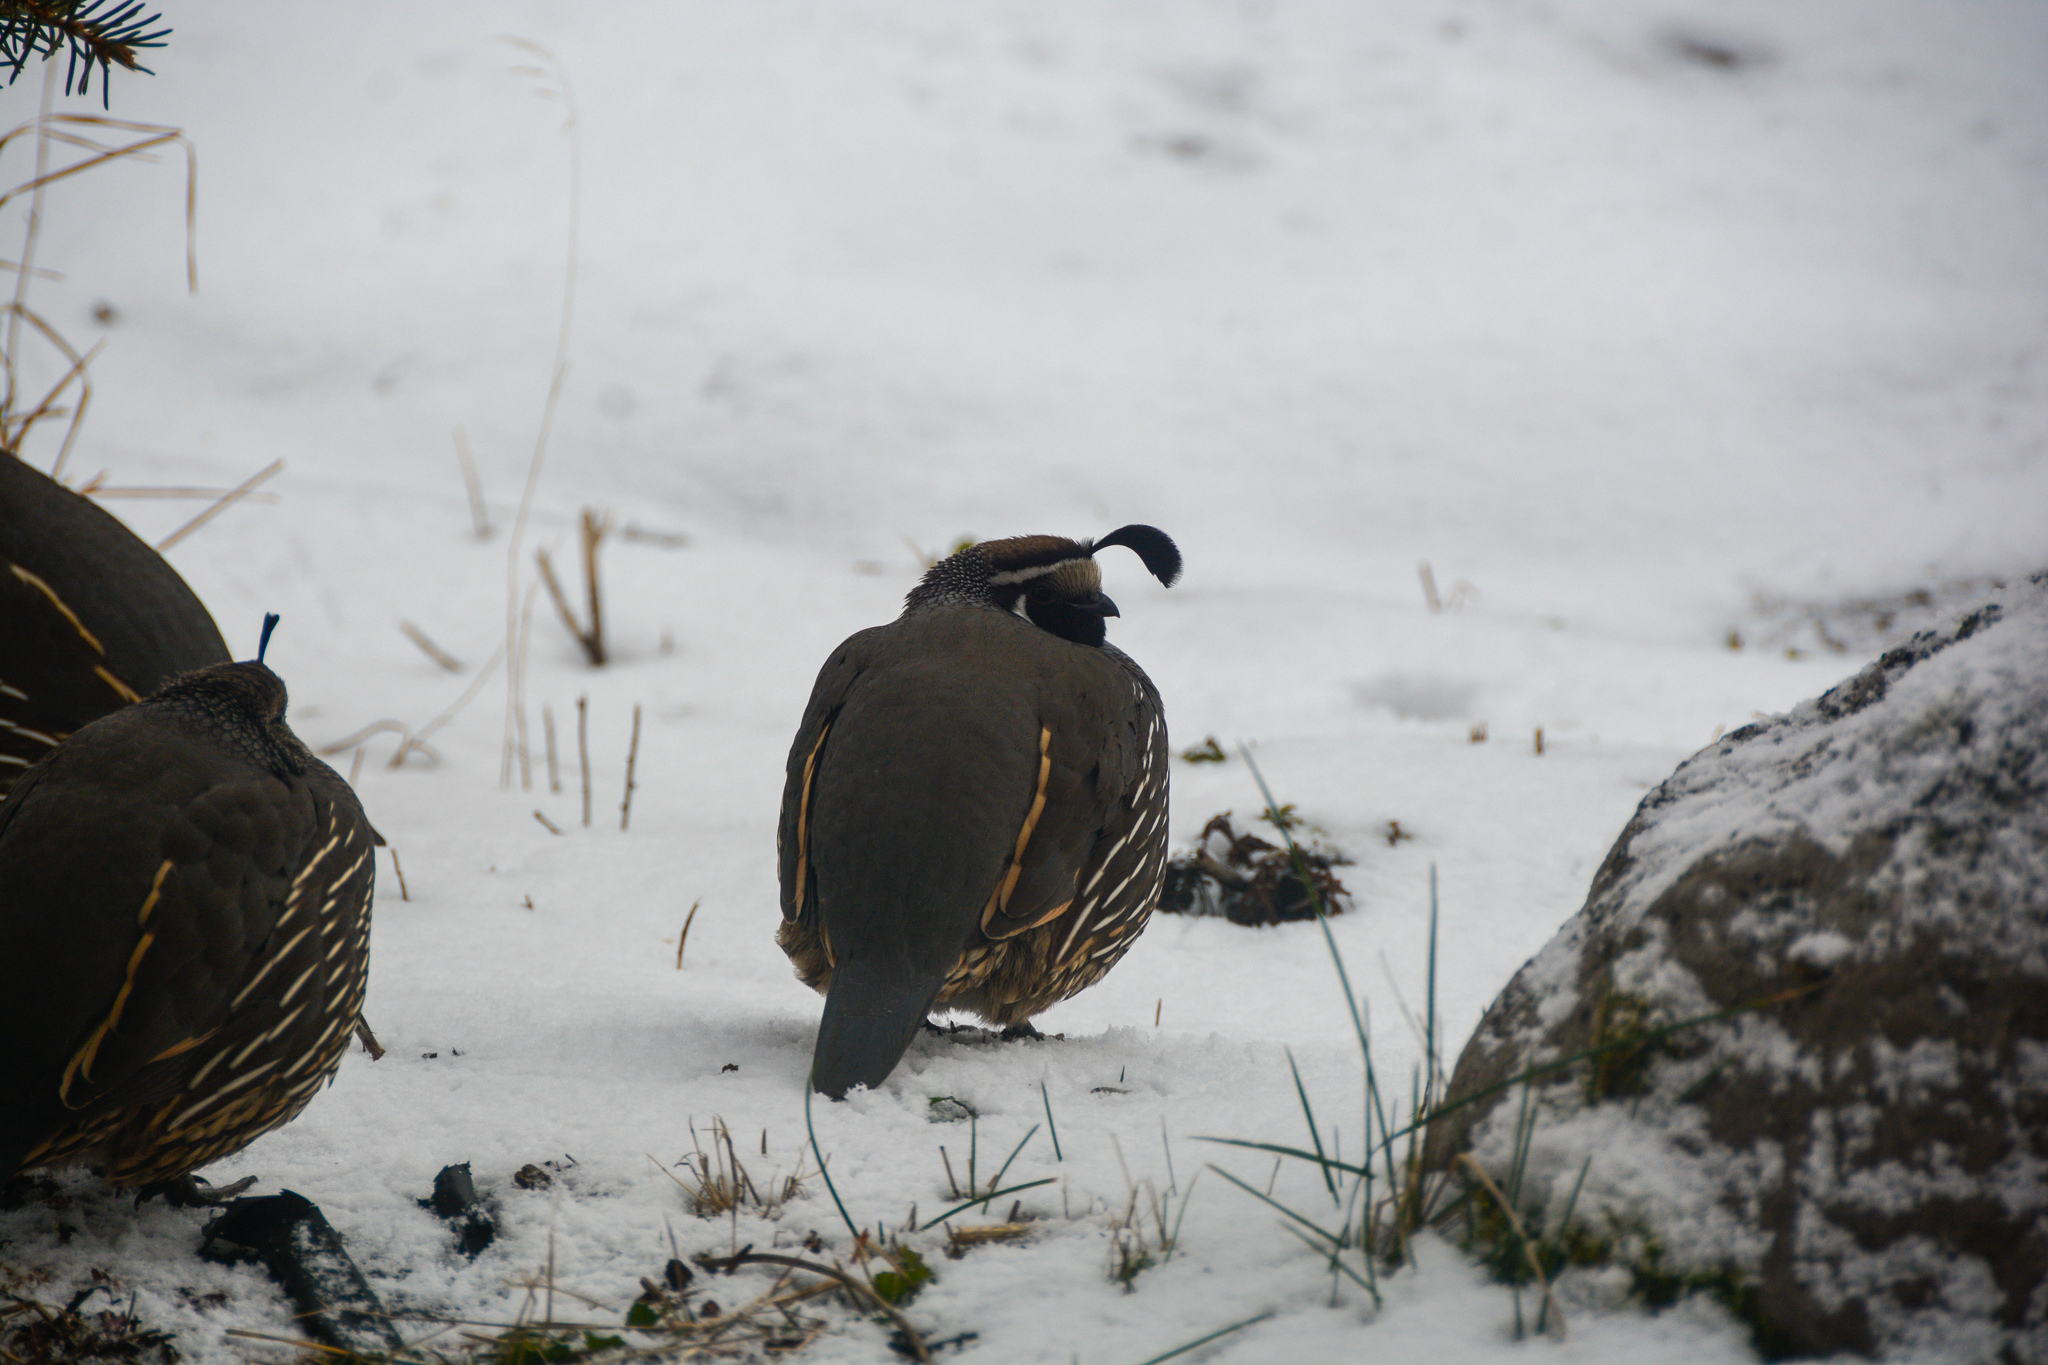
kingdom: Animalia
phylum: Chordata
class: Aves
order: Galliformes
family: Odontophoridae
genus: Callipepla
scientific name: Callipepla californica
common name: California quail
